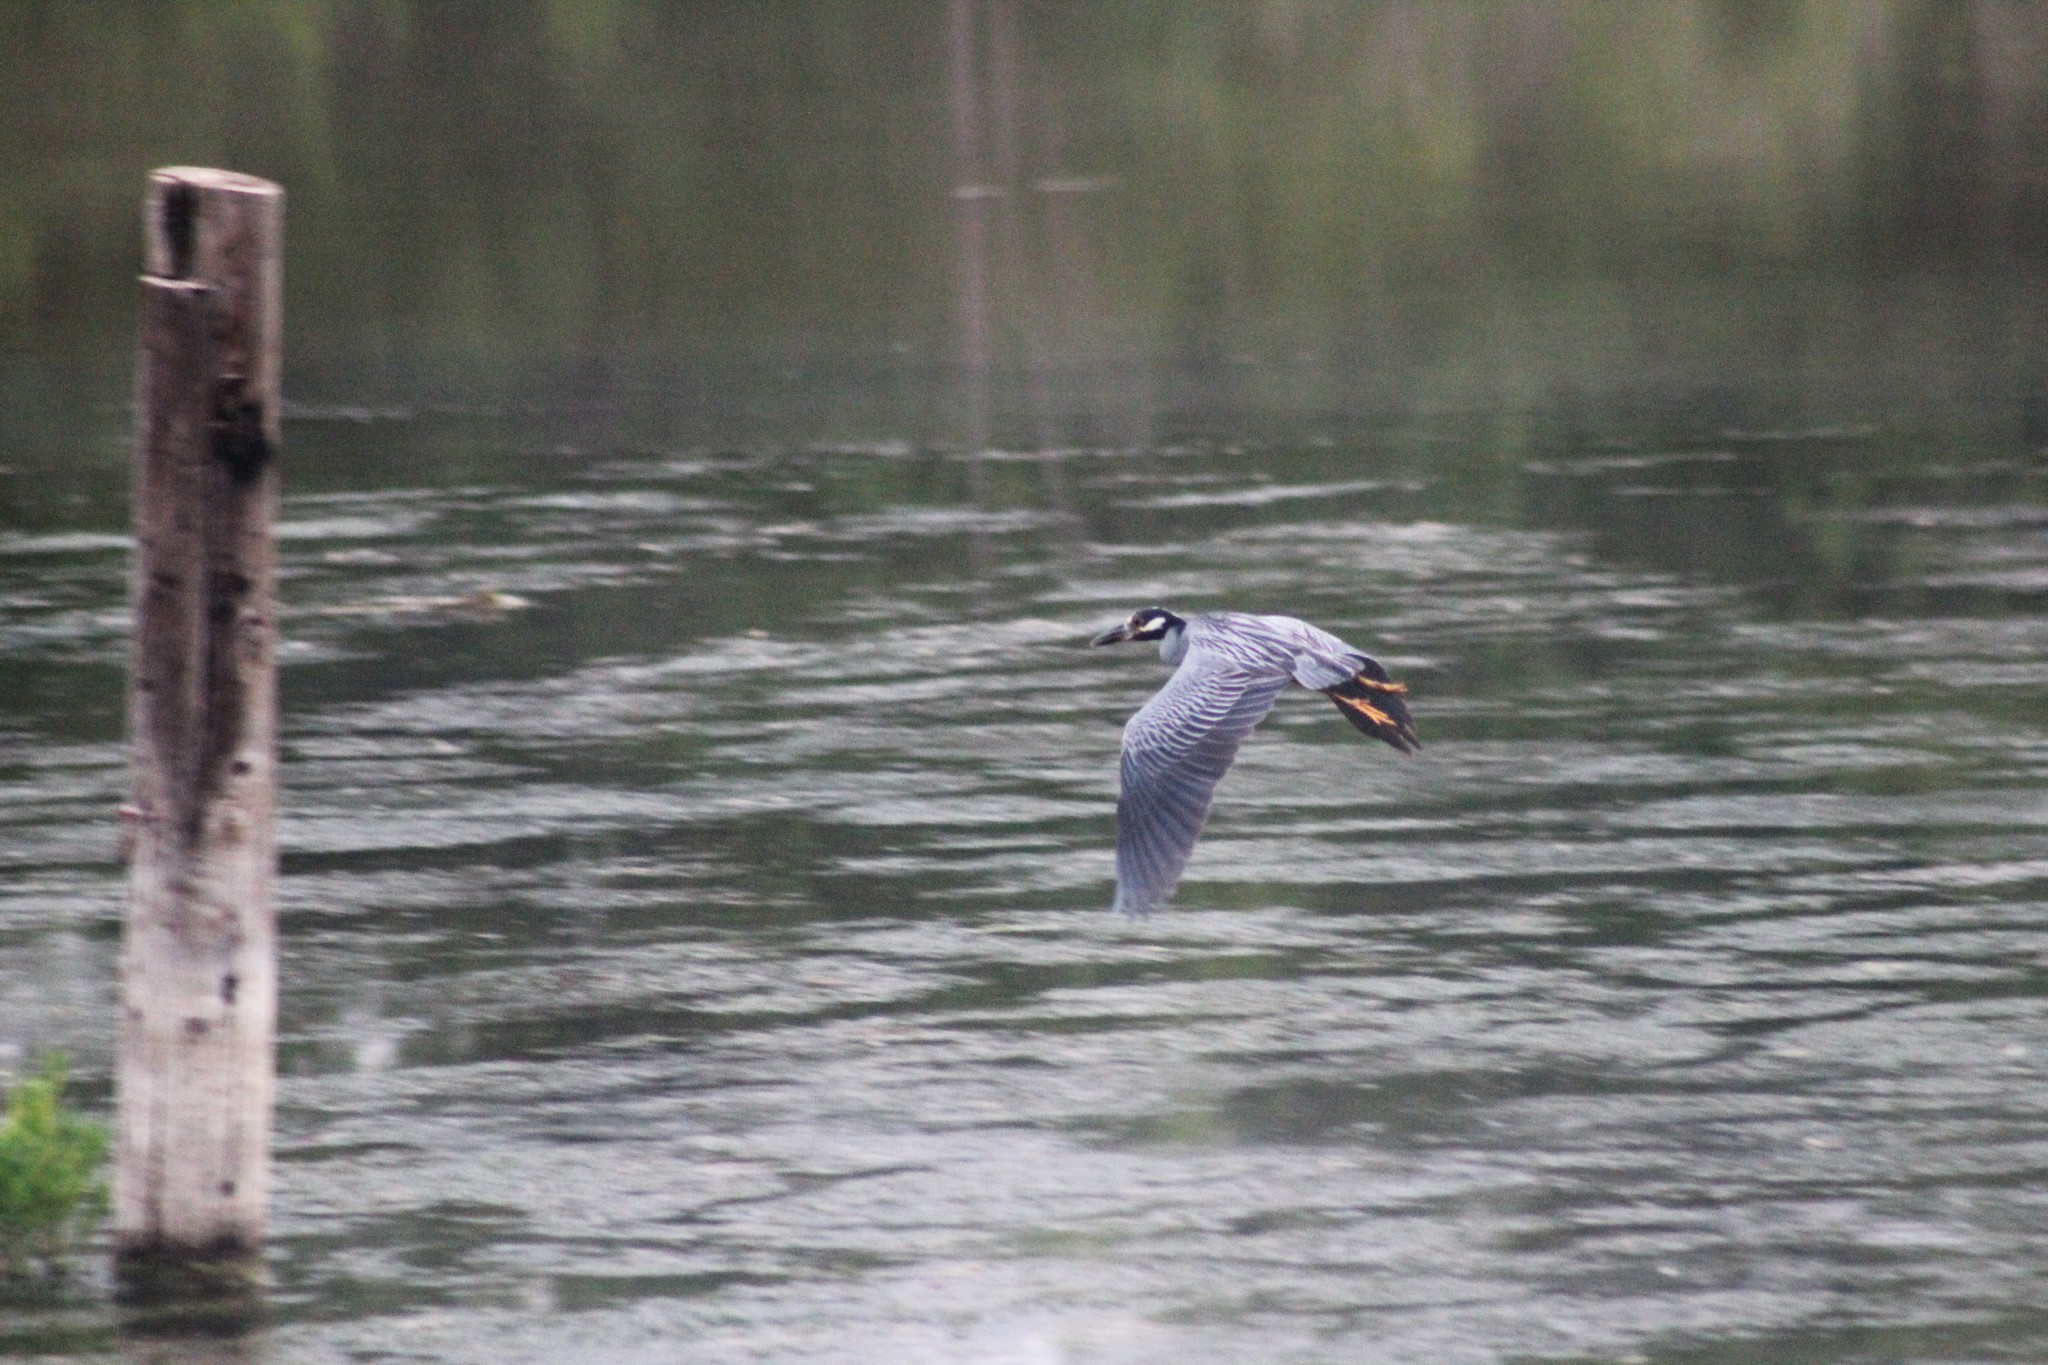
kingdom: Animalia
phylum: Chordata
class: Aves
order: Pelecaniformes
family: Ardeidae
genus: Nyctanassa
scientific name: Nyctanassa violacea
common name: Yellow-crowned night heron
